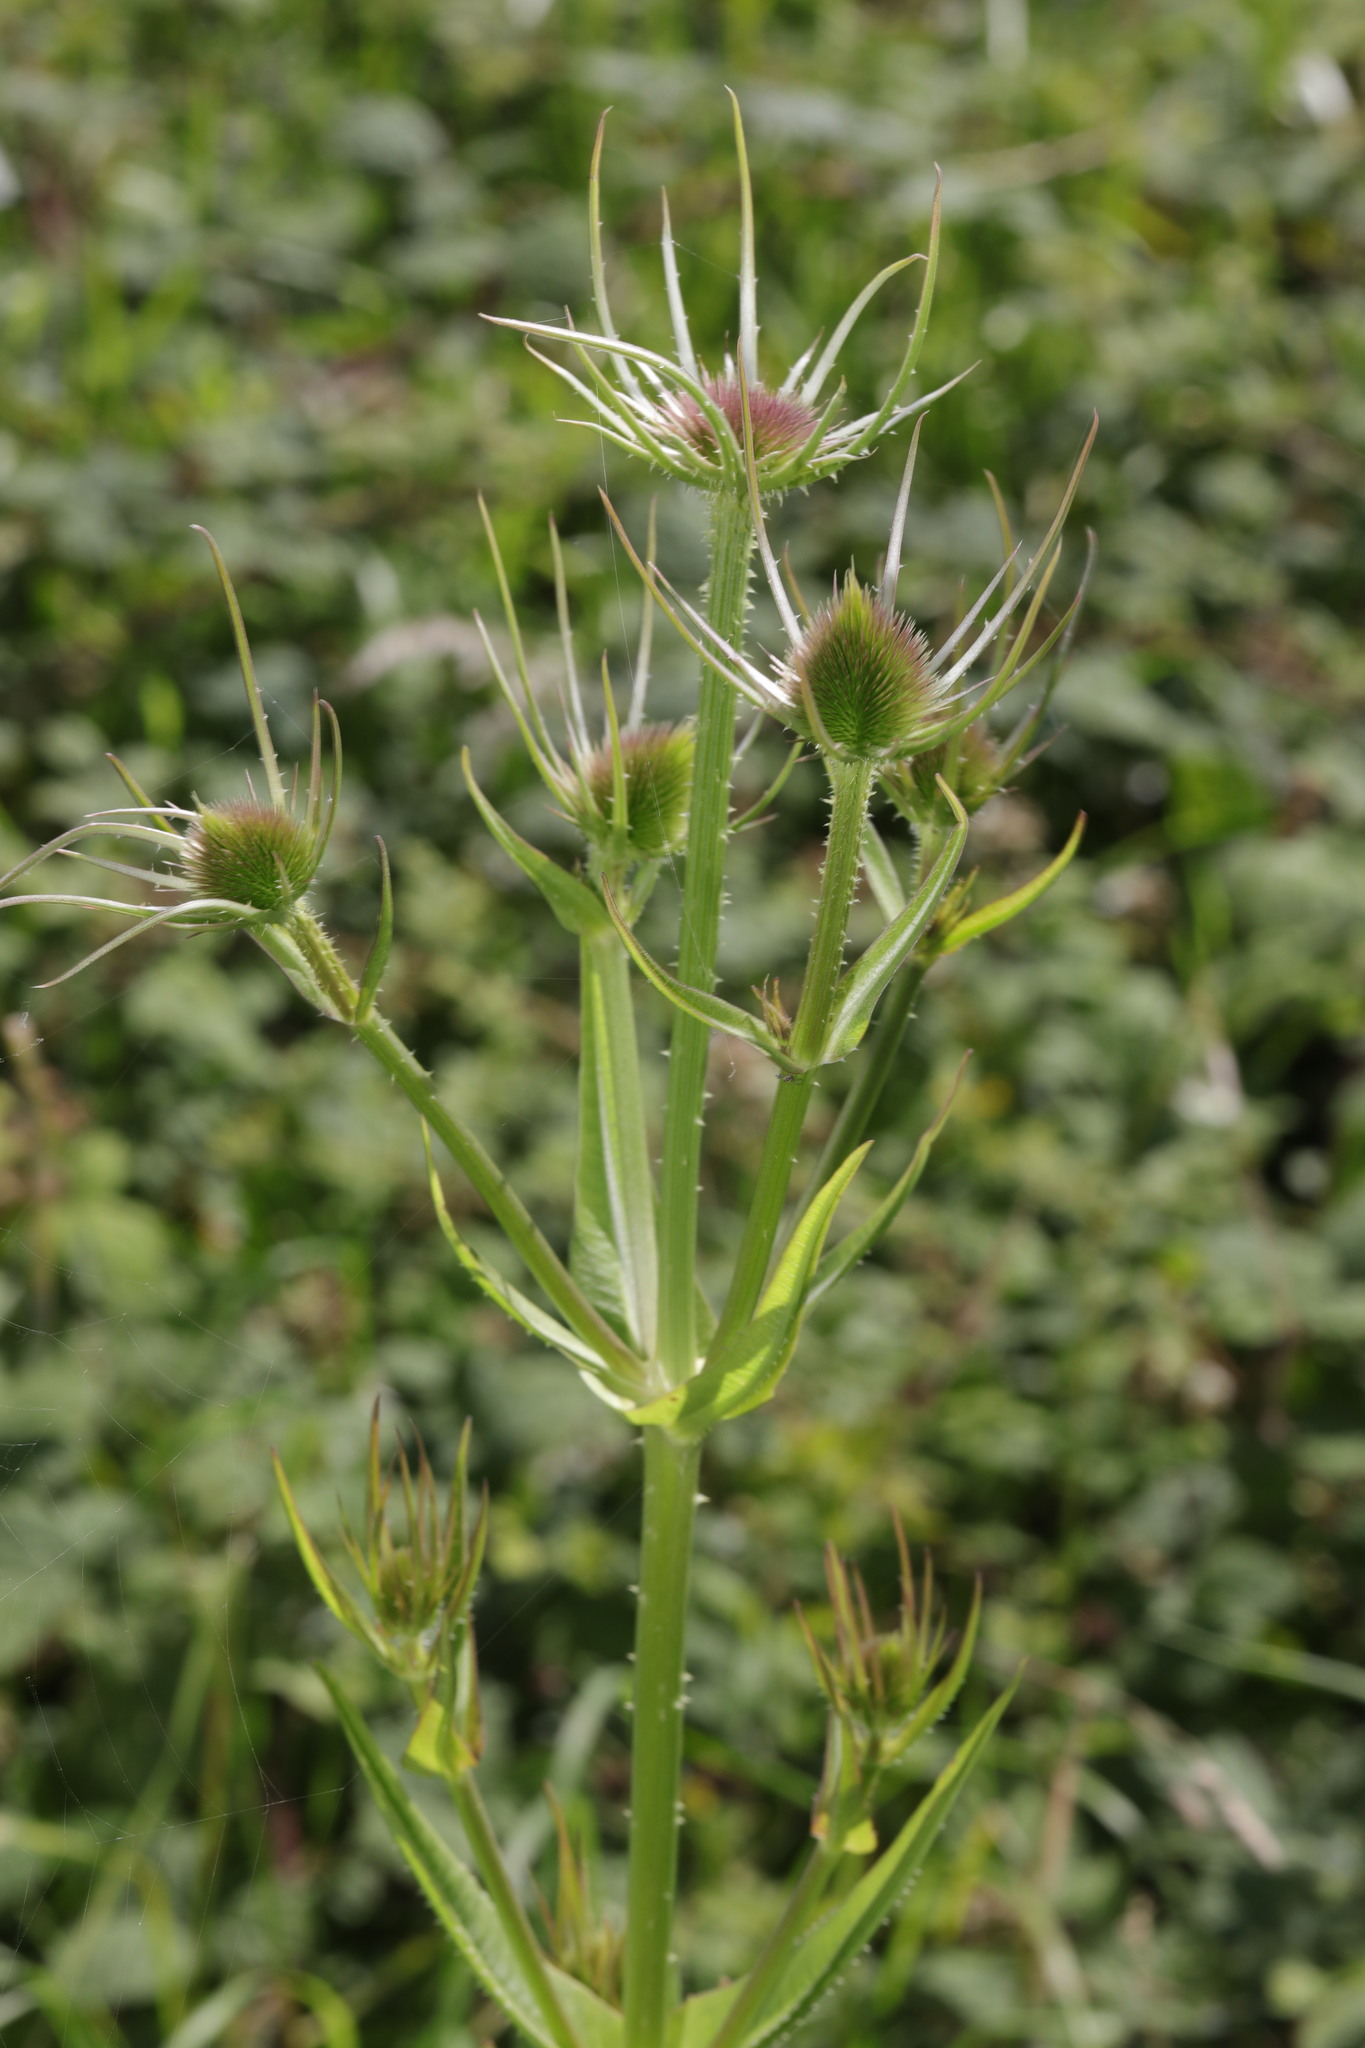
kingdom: Plantae
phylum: Tracheophyta
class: Magnoliopsida
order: Dipsacales
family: Caprifoliaceae
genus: Dipsacus
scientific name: Dipsacus fullonum
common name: Teasel
